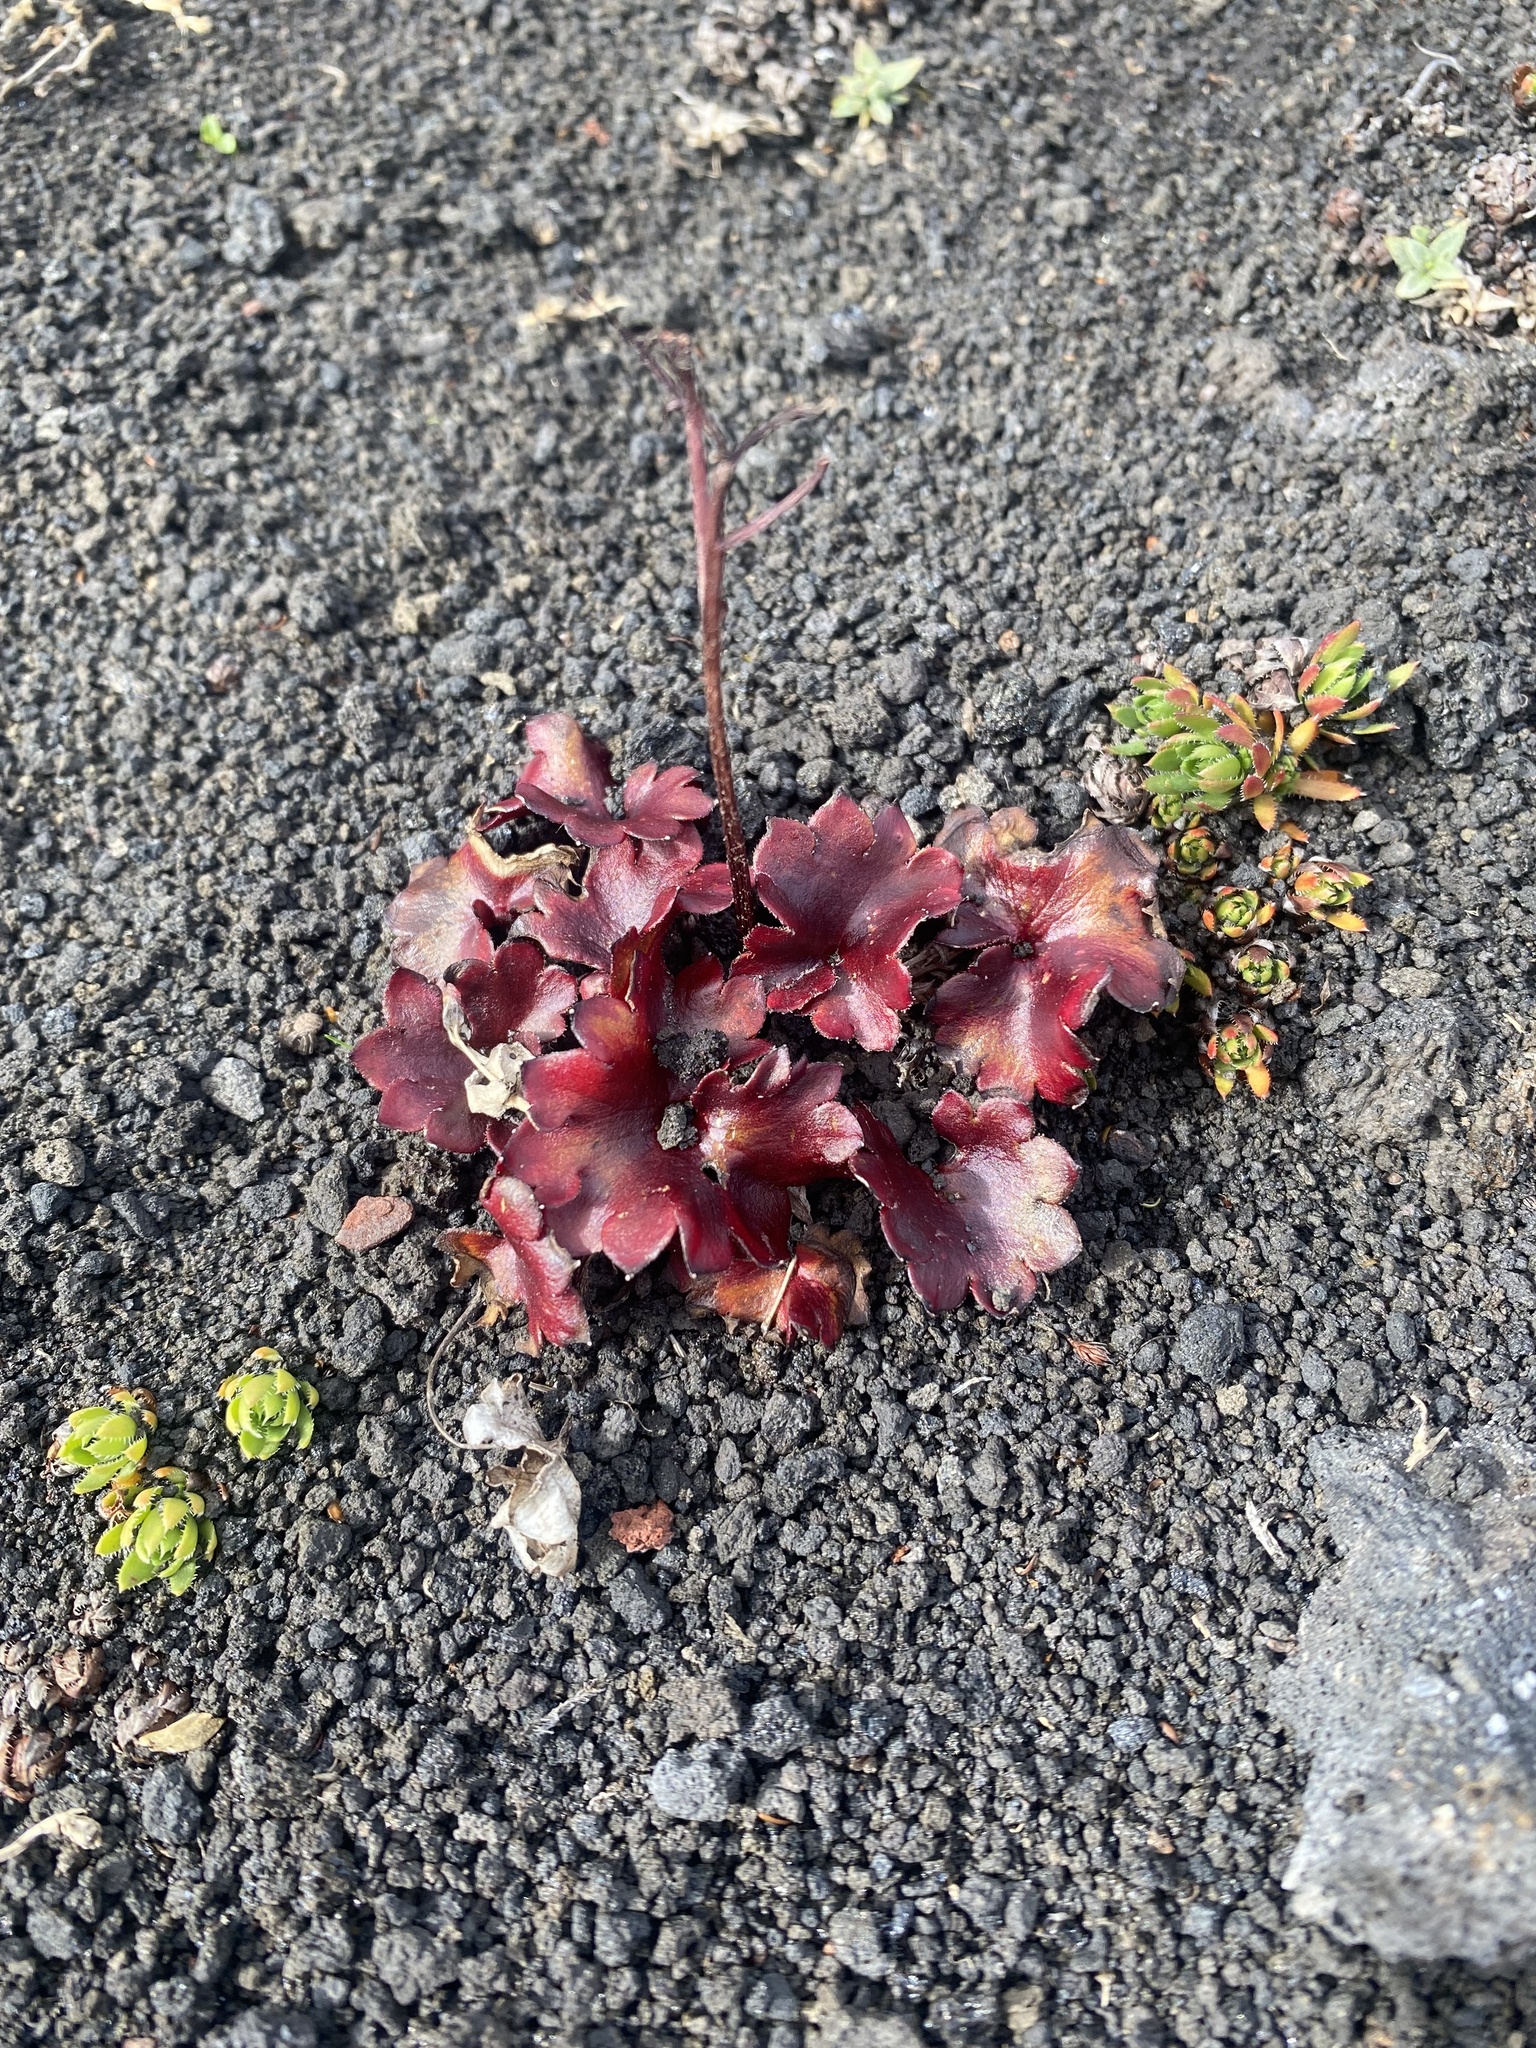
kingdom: Plantae
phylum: Tracheophyta
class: Magnoliopsida
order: Saxifragales
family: Saxifragaceae
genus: Micranthes
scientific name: Micranthes purpurascens
